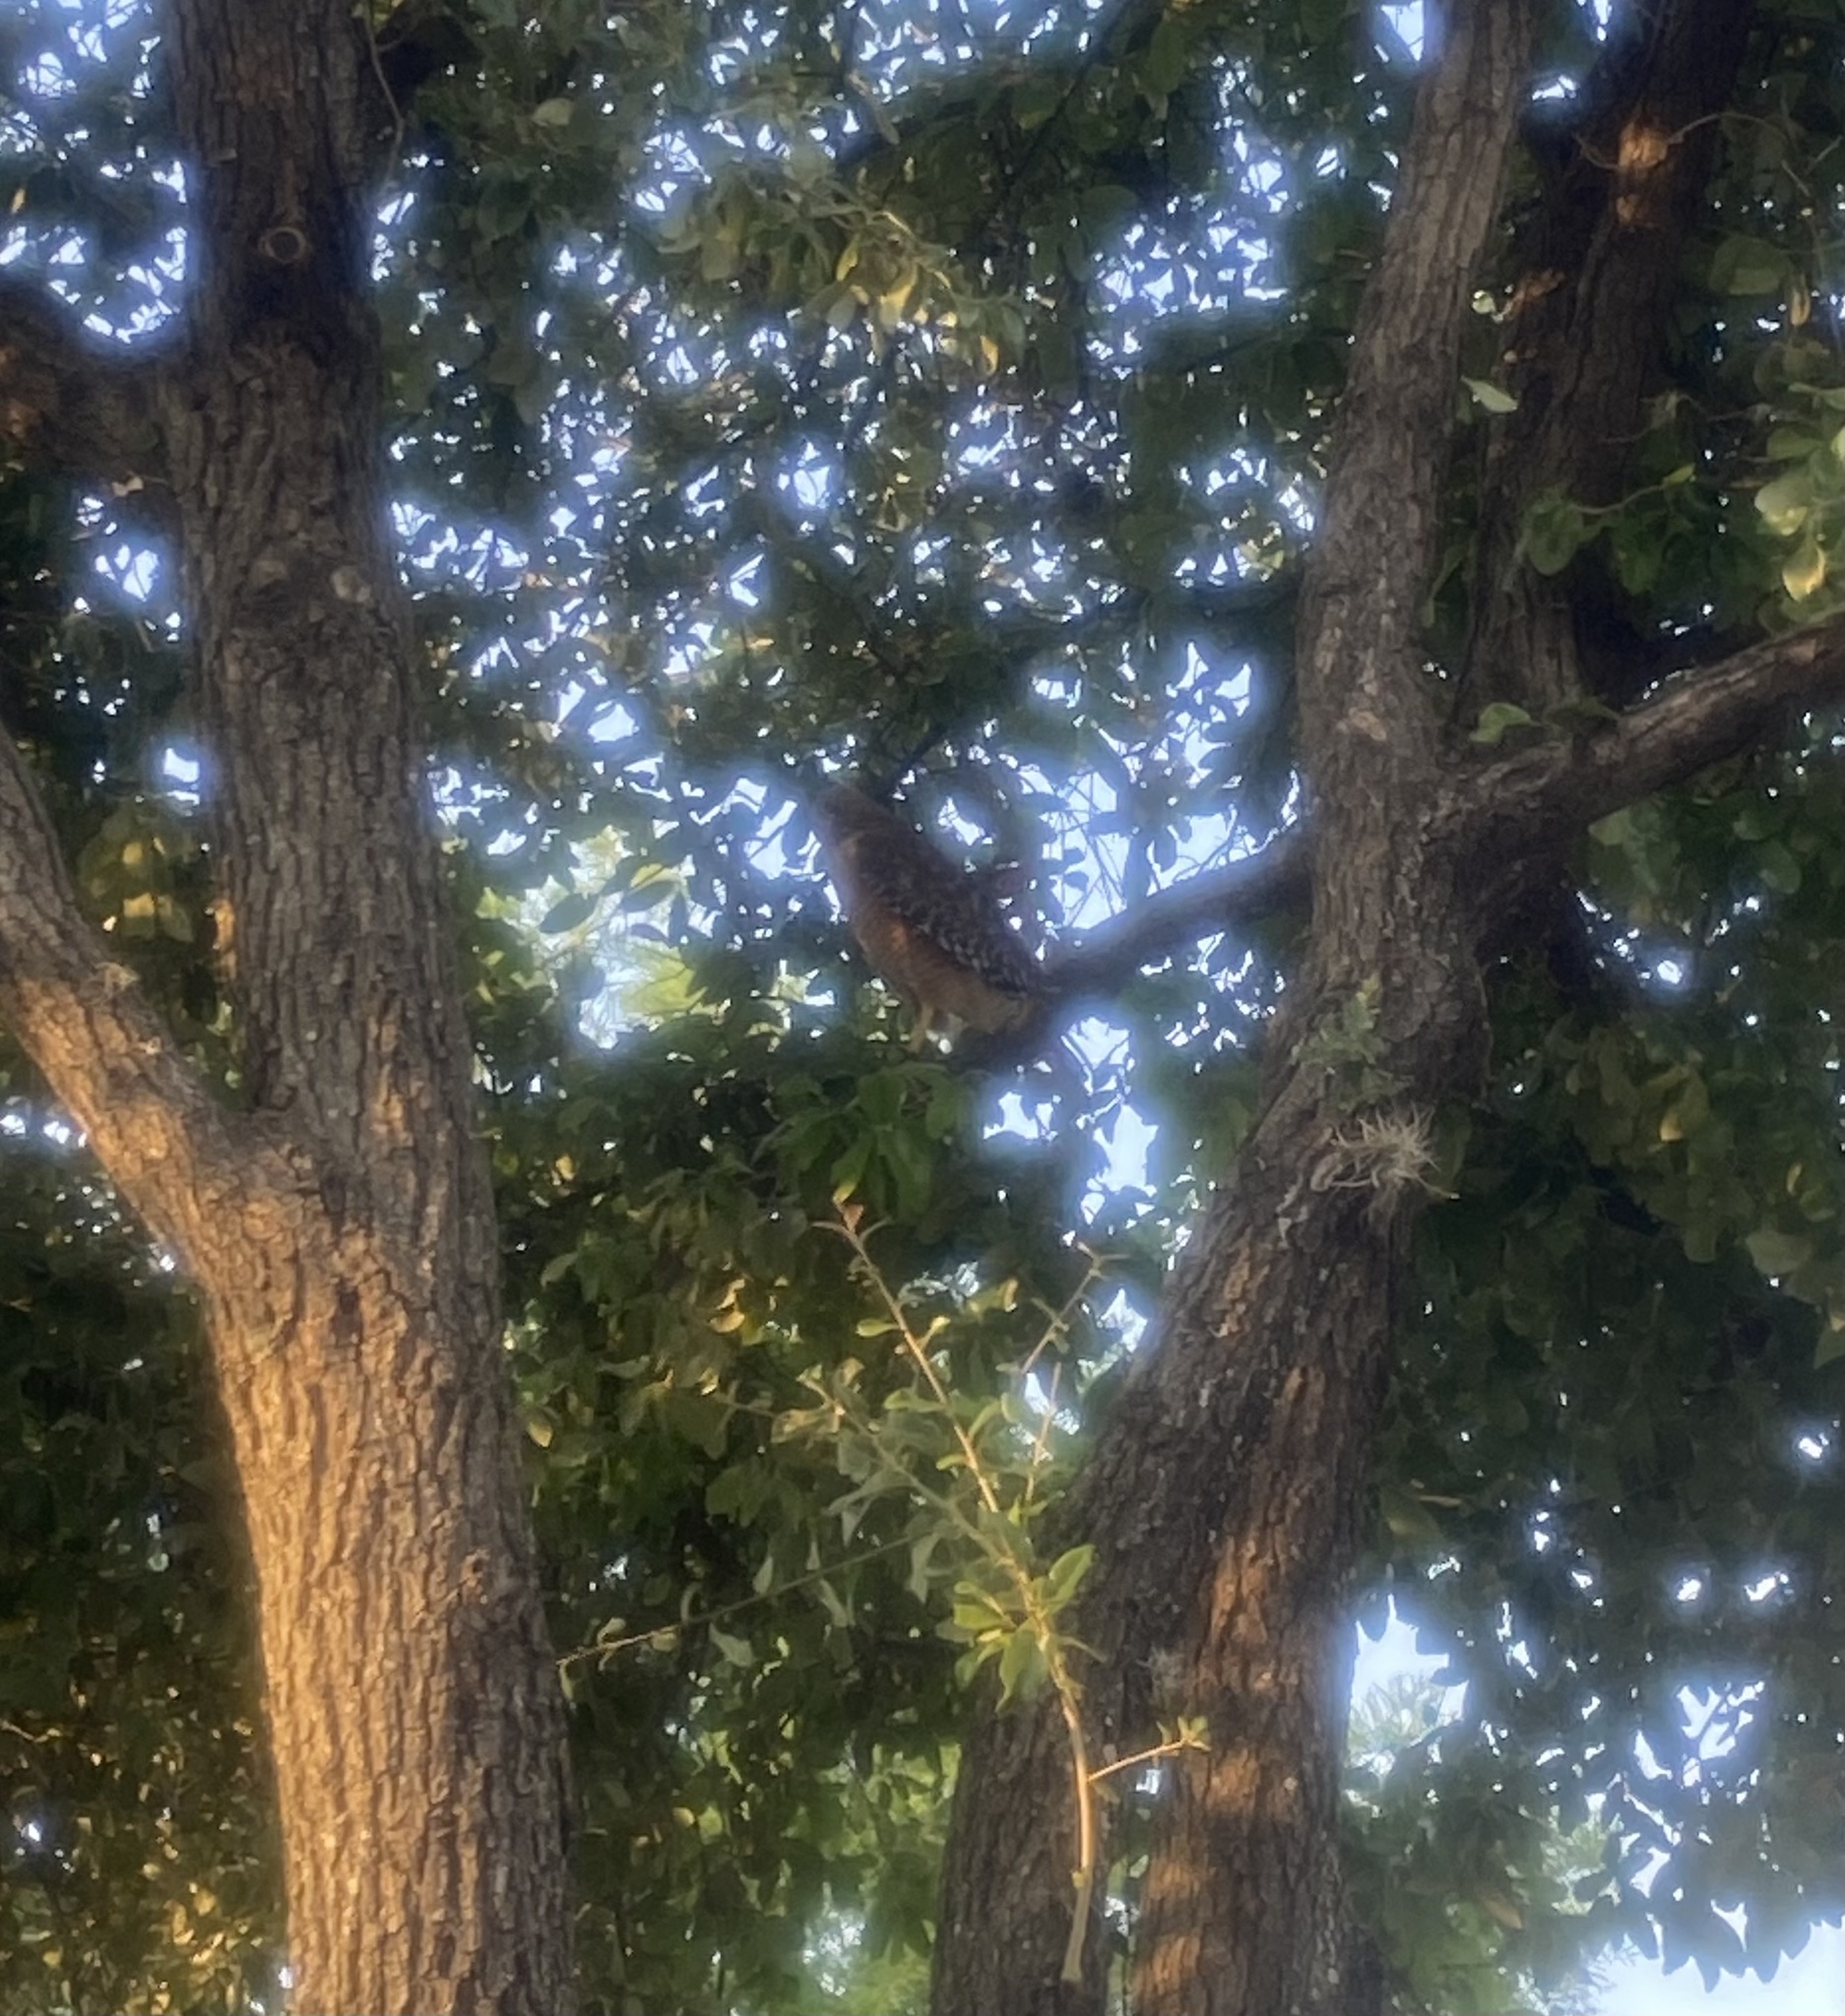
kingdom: Animalia
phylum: Chordata
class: Aves
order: Accipitriformes
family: Accipitridae
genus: Buteo
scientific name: Buteo lineatus
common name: Red-shouldered hawk
